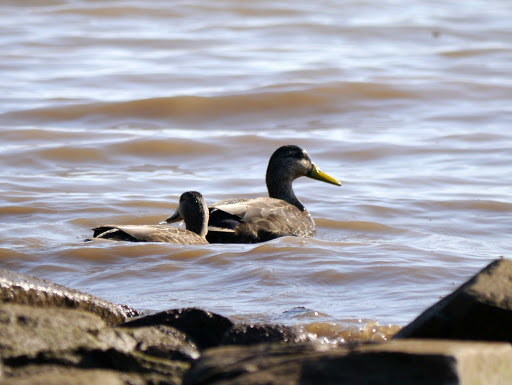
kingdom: Animalia
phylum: Chordata
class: Aves
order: Anseriformes
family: Anatidae
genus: Anas
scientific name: Anas rubripes
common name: American black duck
